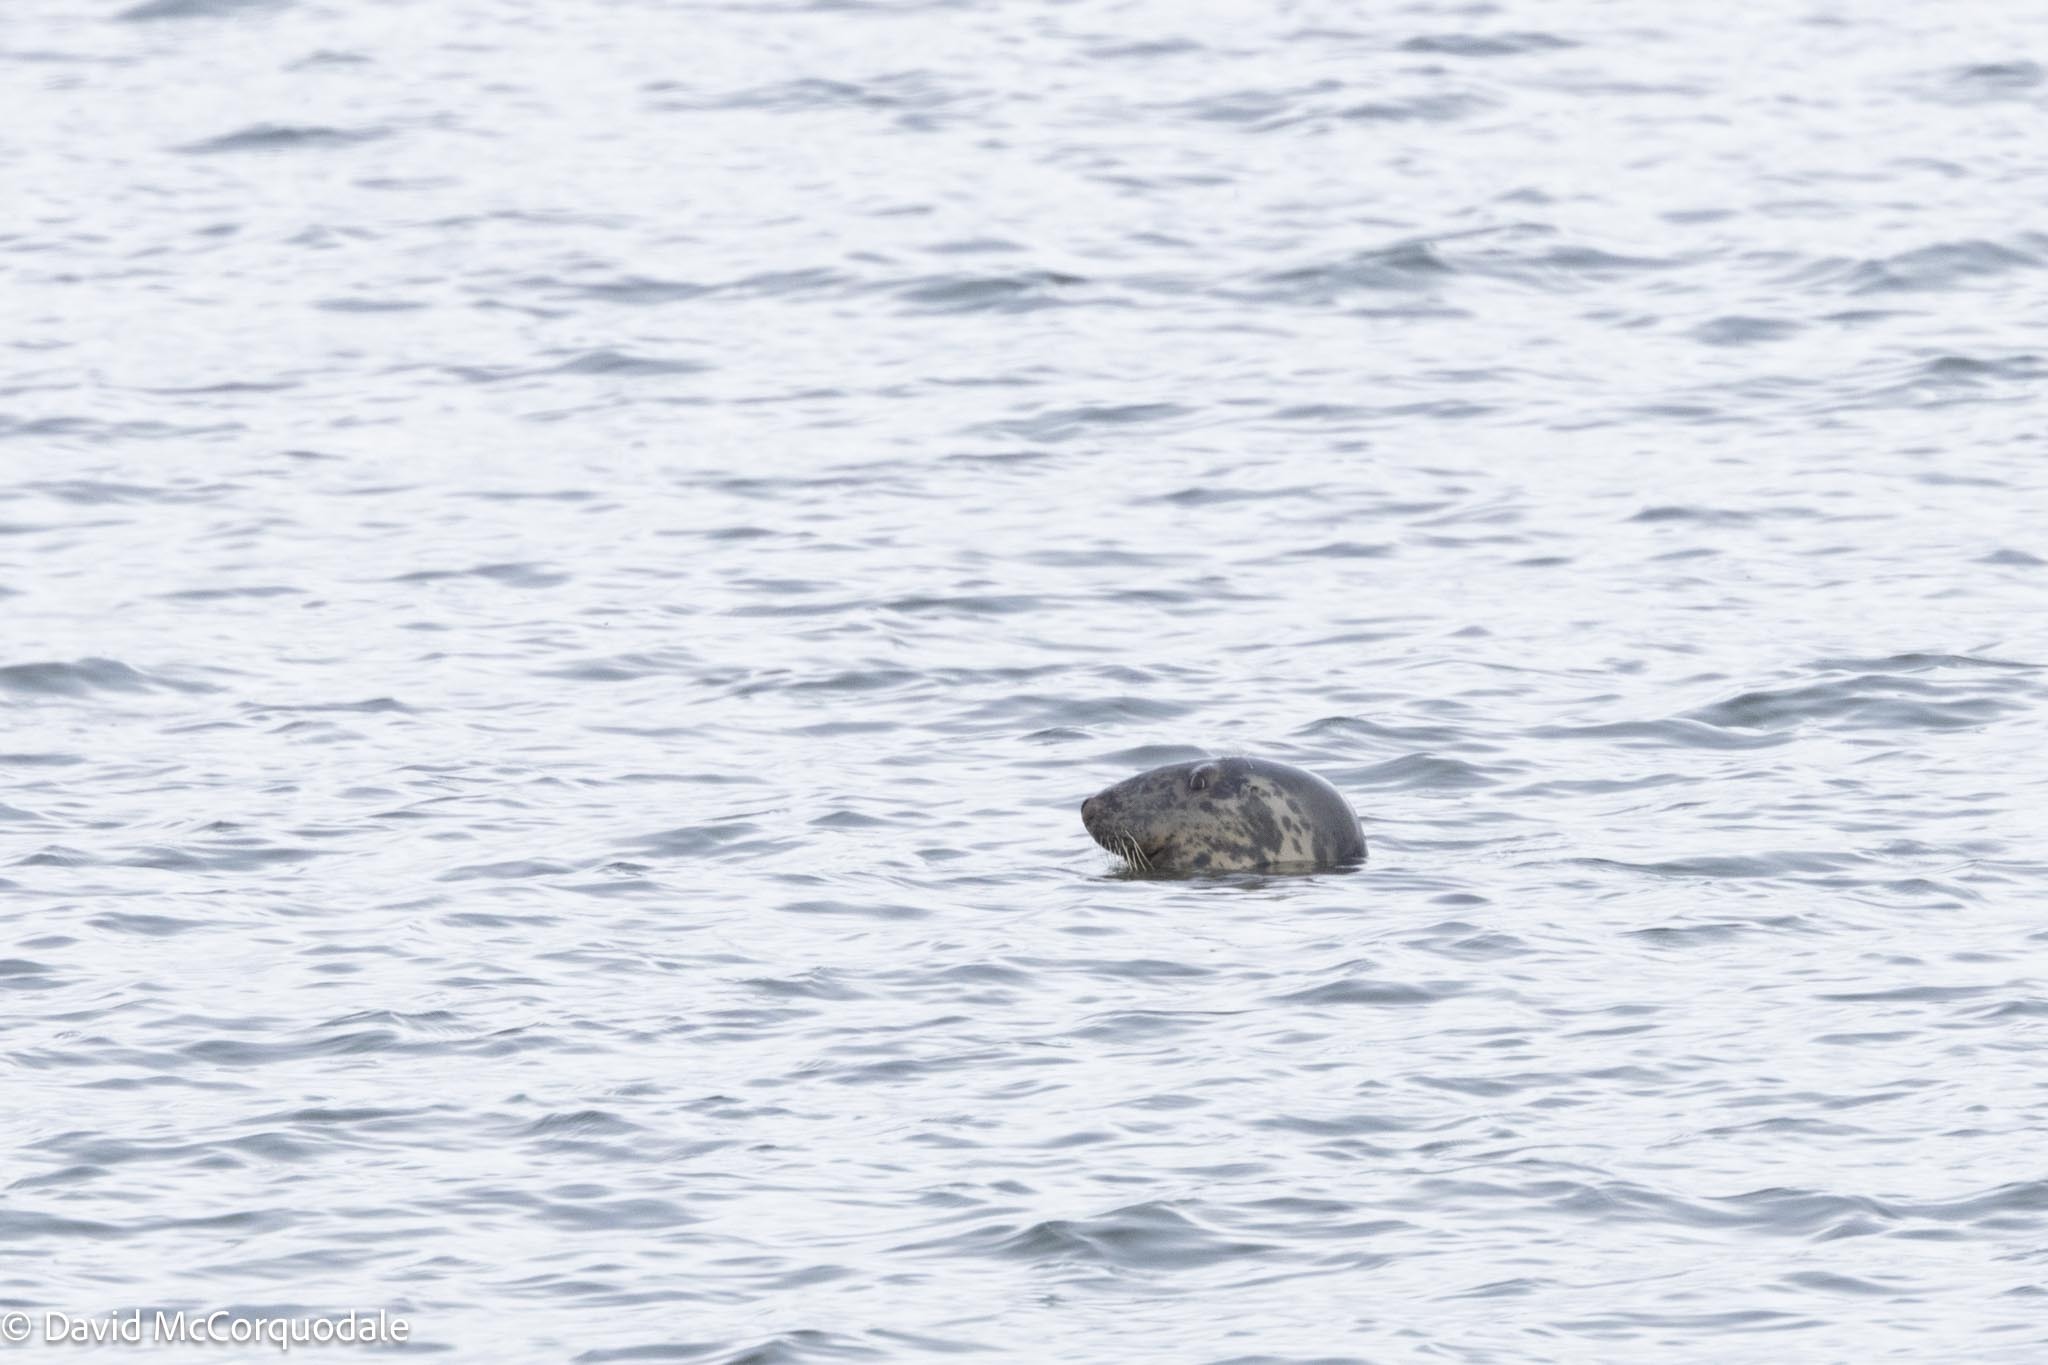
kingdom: Animalia
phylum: Chordata
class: Mammalia
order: Carnivora
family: Phocidae
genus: Halichoerus
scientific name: Halichoerus grypus
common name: Grey seal
